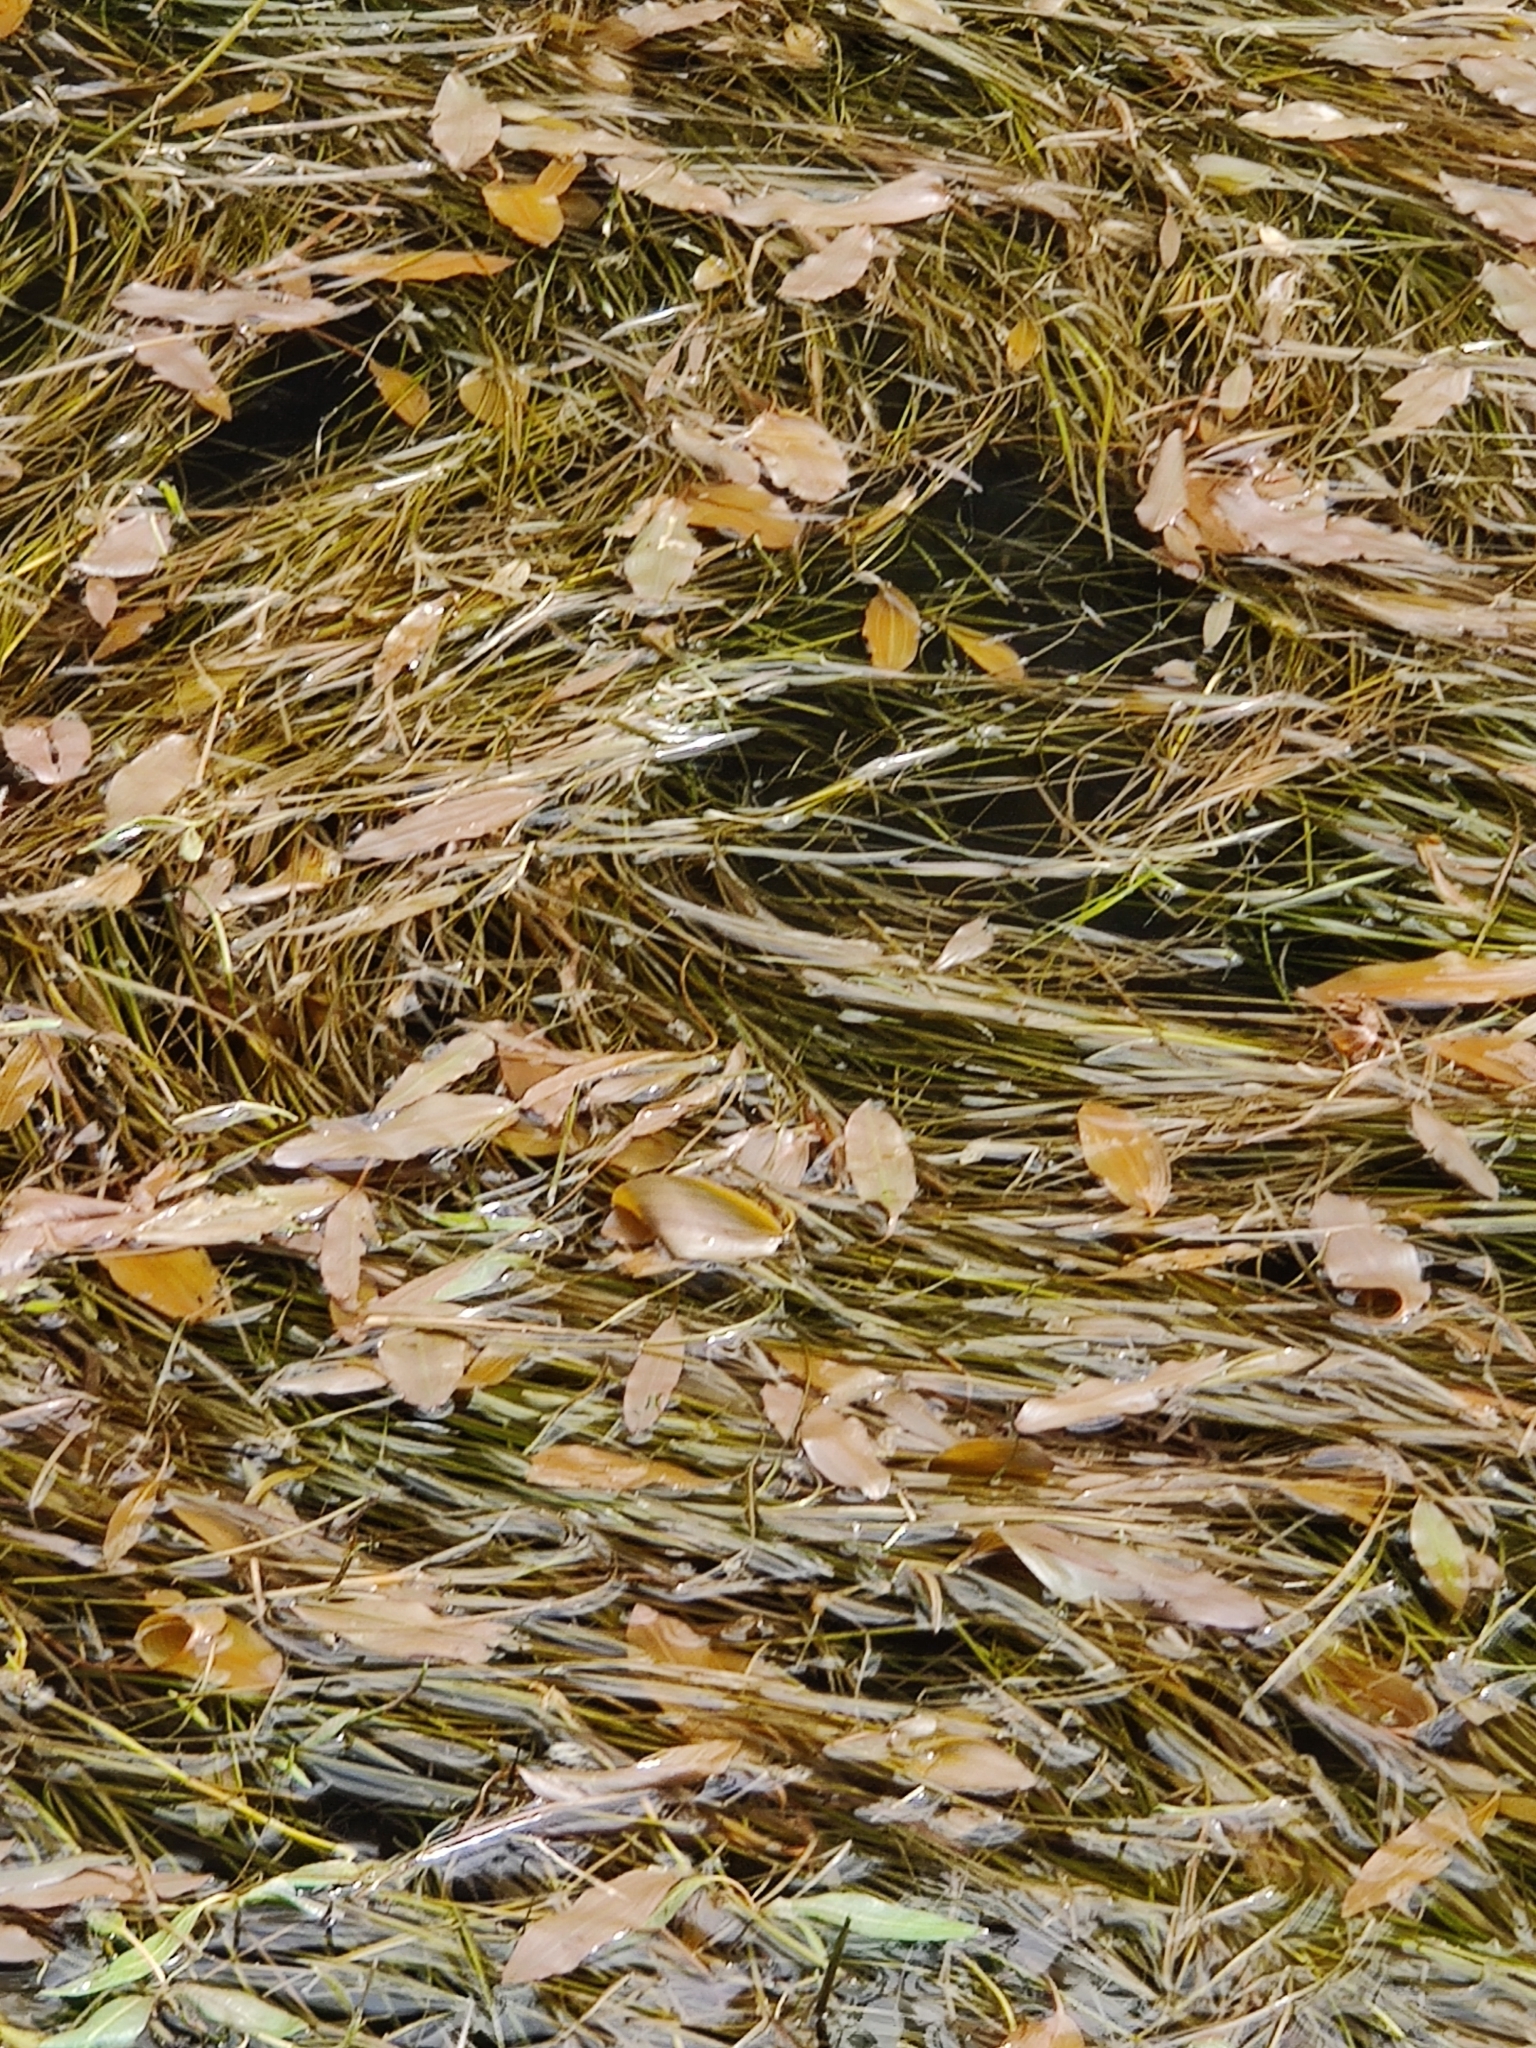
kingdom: Plantae
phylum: Tracheophyta
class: Liliopsida
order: Alismatales
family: Potamogetonaceae
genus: Potamogeton
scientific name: Potamogeton natans
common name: Broad-leaved pondweed
